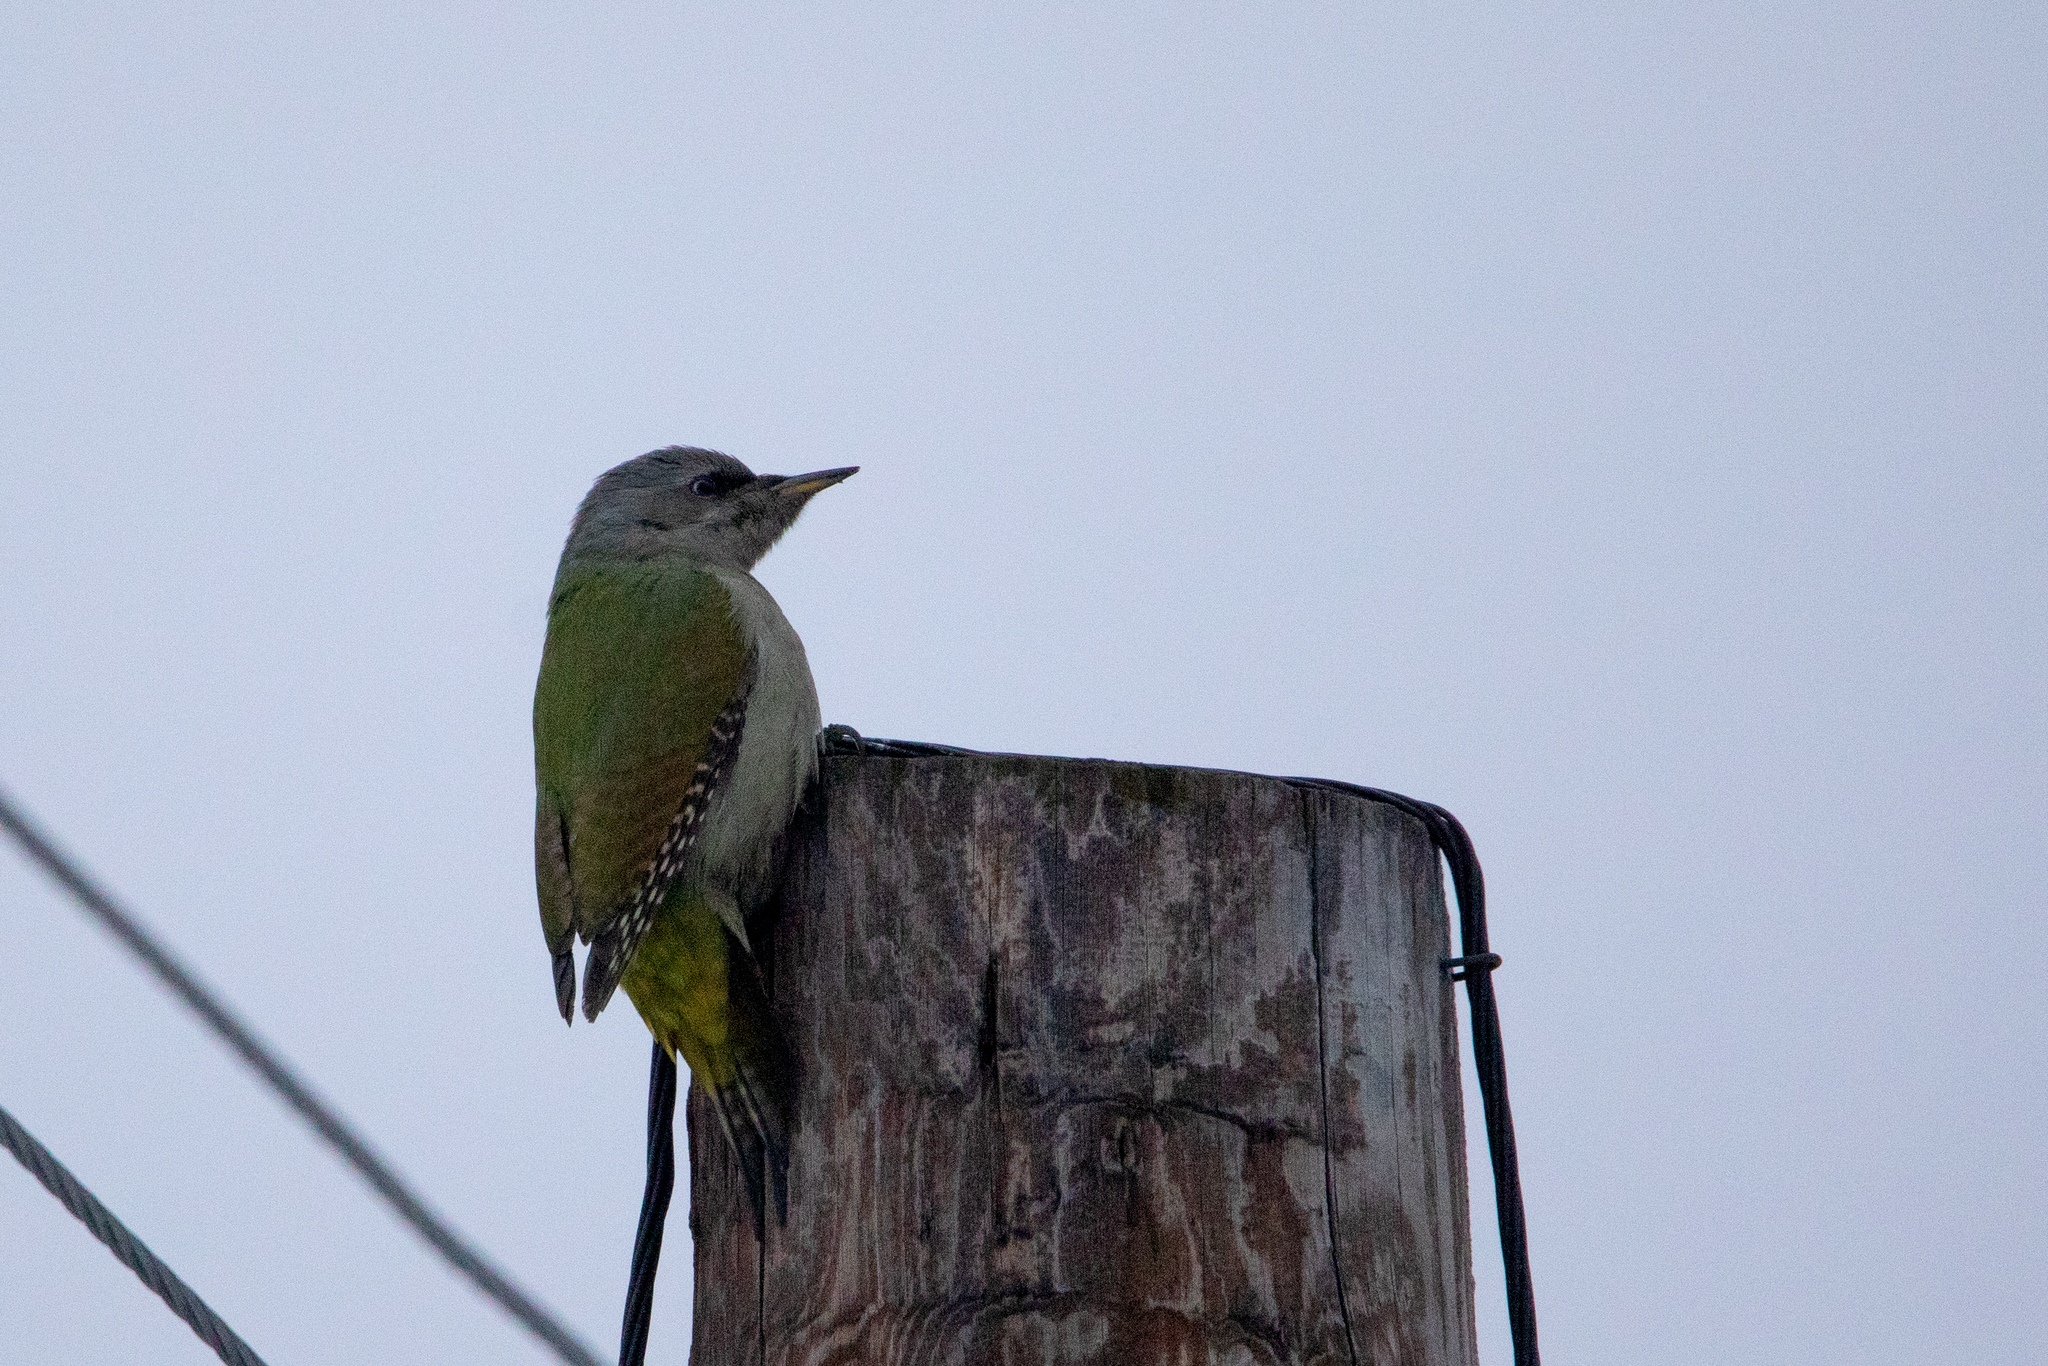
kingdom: Animalia
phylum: Chordata
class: Aves
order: Piciformes
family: Picidae
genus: Picus
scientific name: Picus canus
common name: Grey-headed woodpecker
